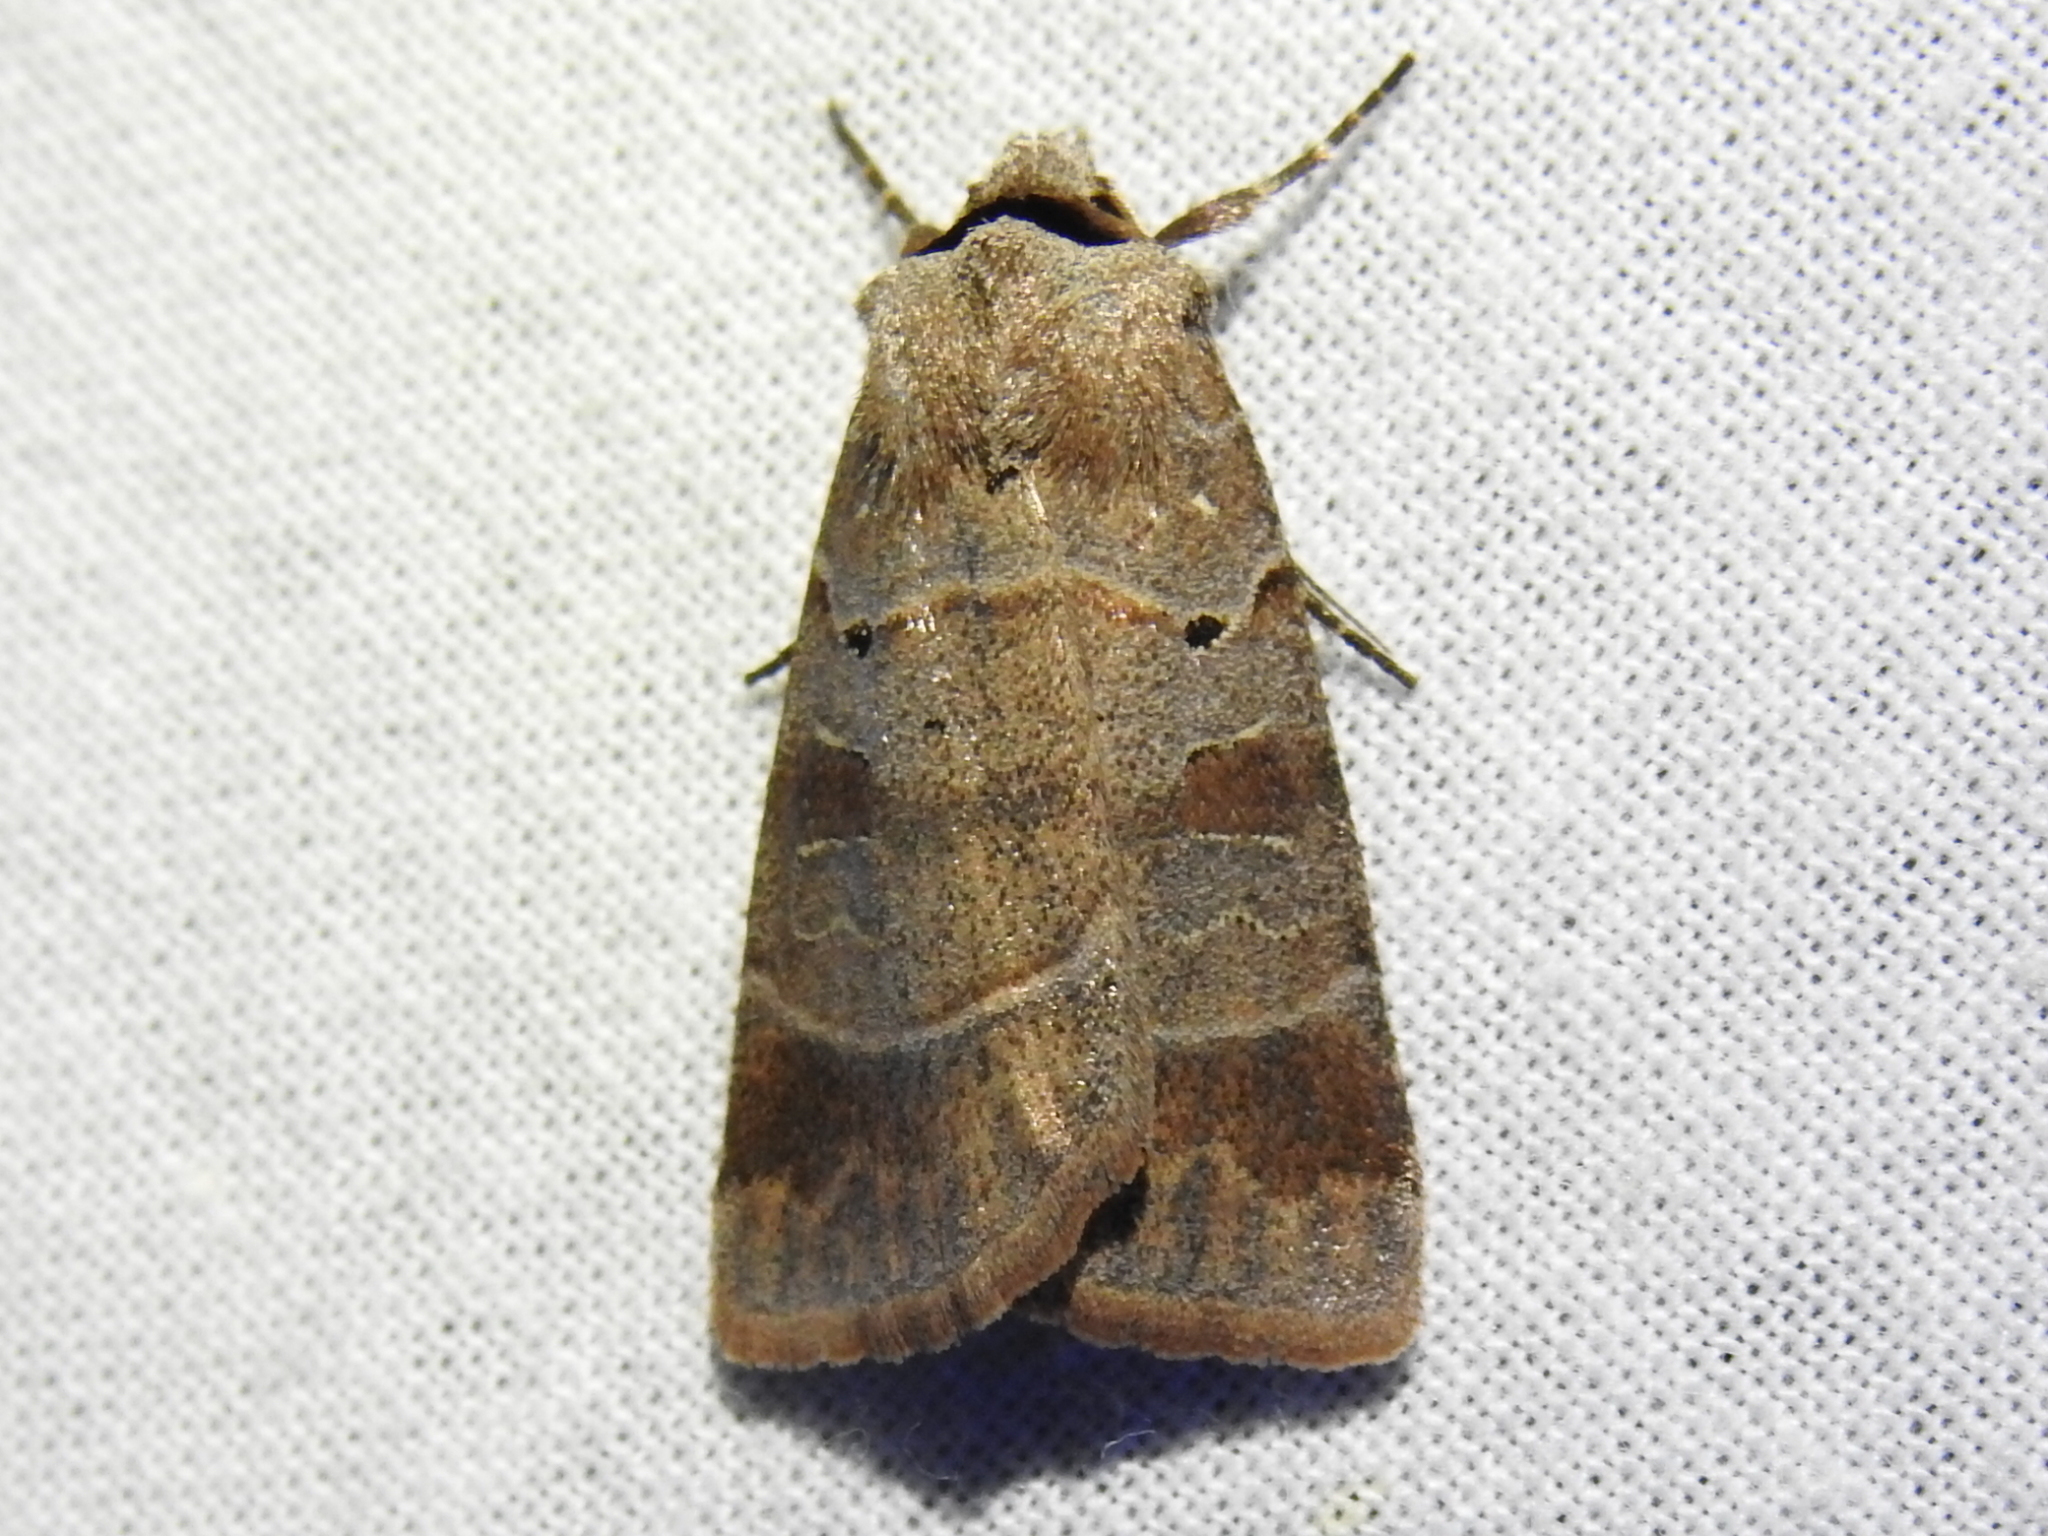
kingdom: Animalia
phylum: Arthropoda
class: Insecta
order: Lepidoptera
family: Noctuidae
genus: Agnorisma
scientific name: Agnorisma badinodis
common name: Pale-banded dart
